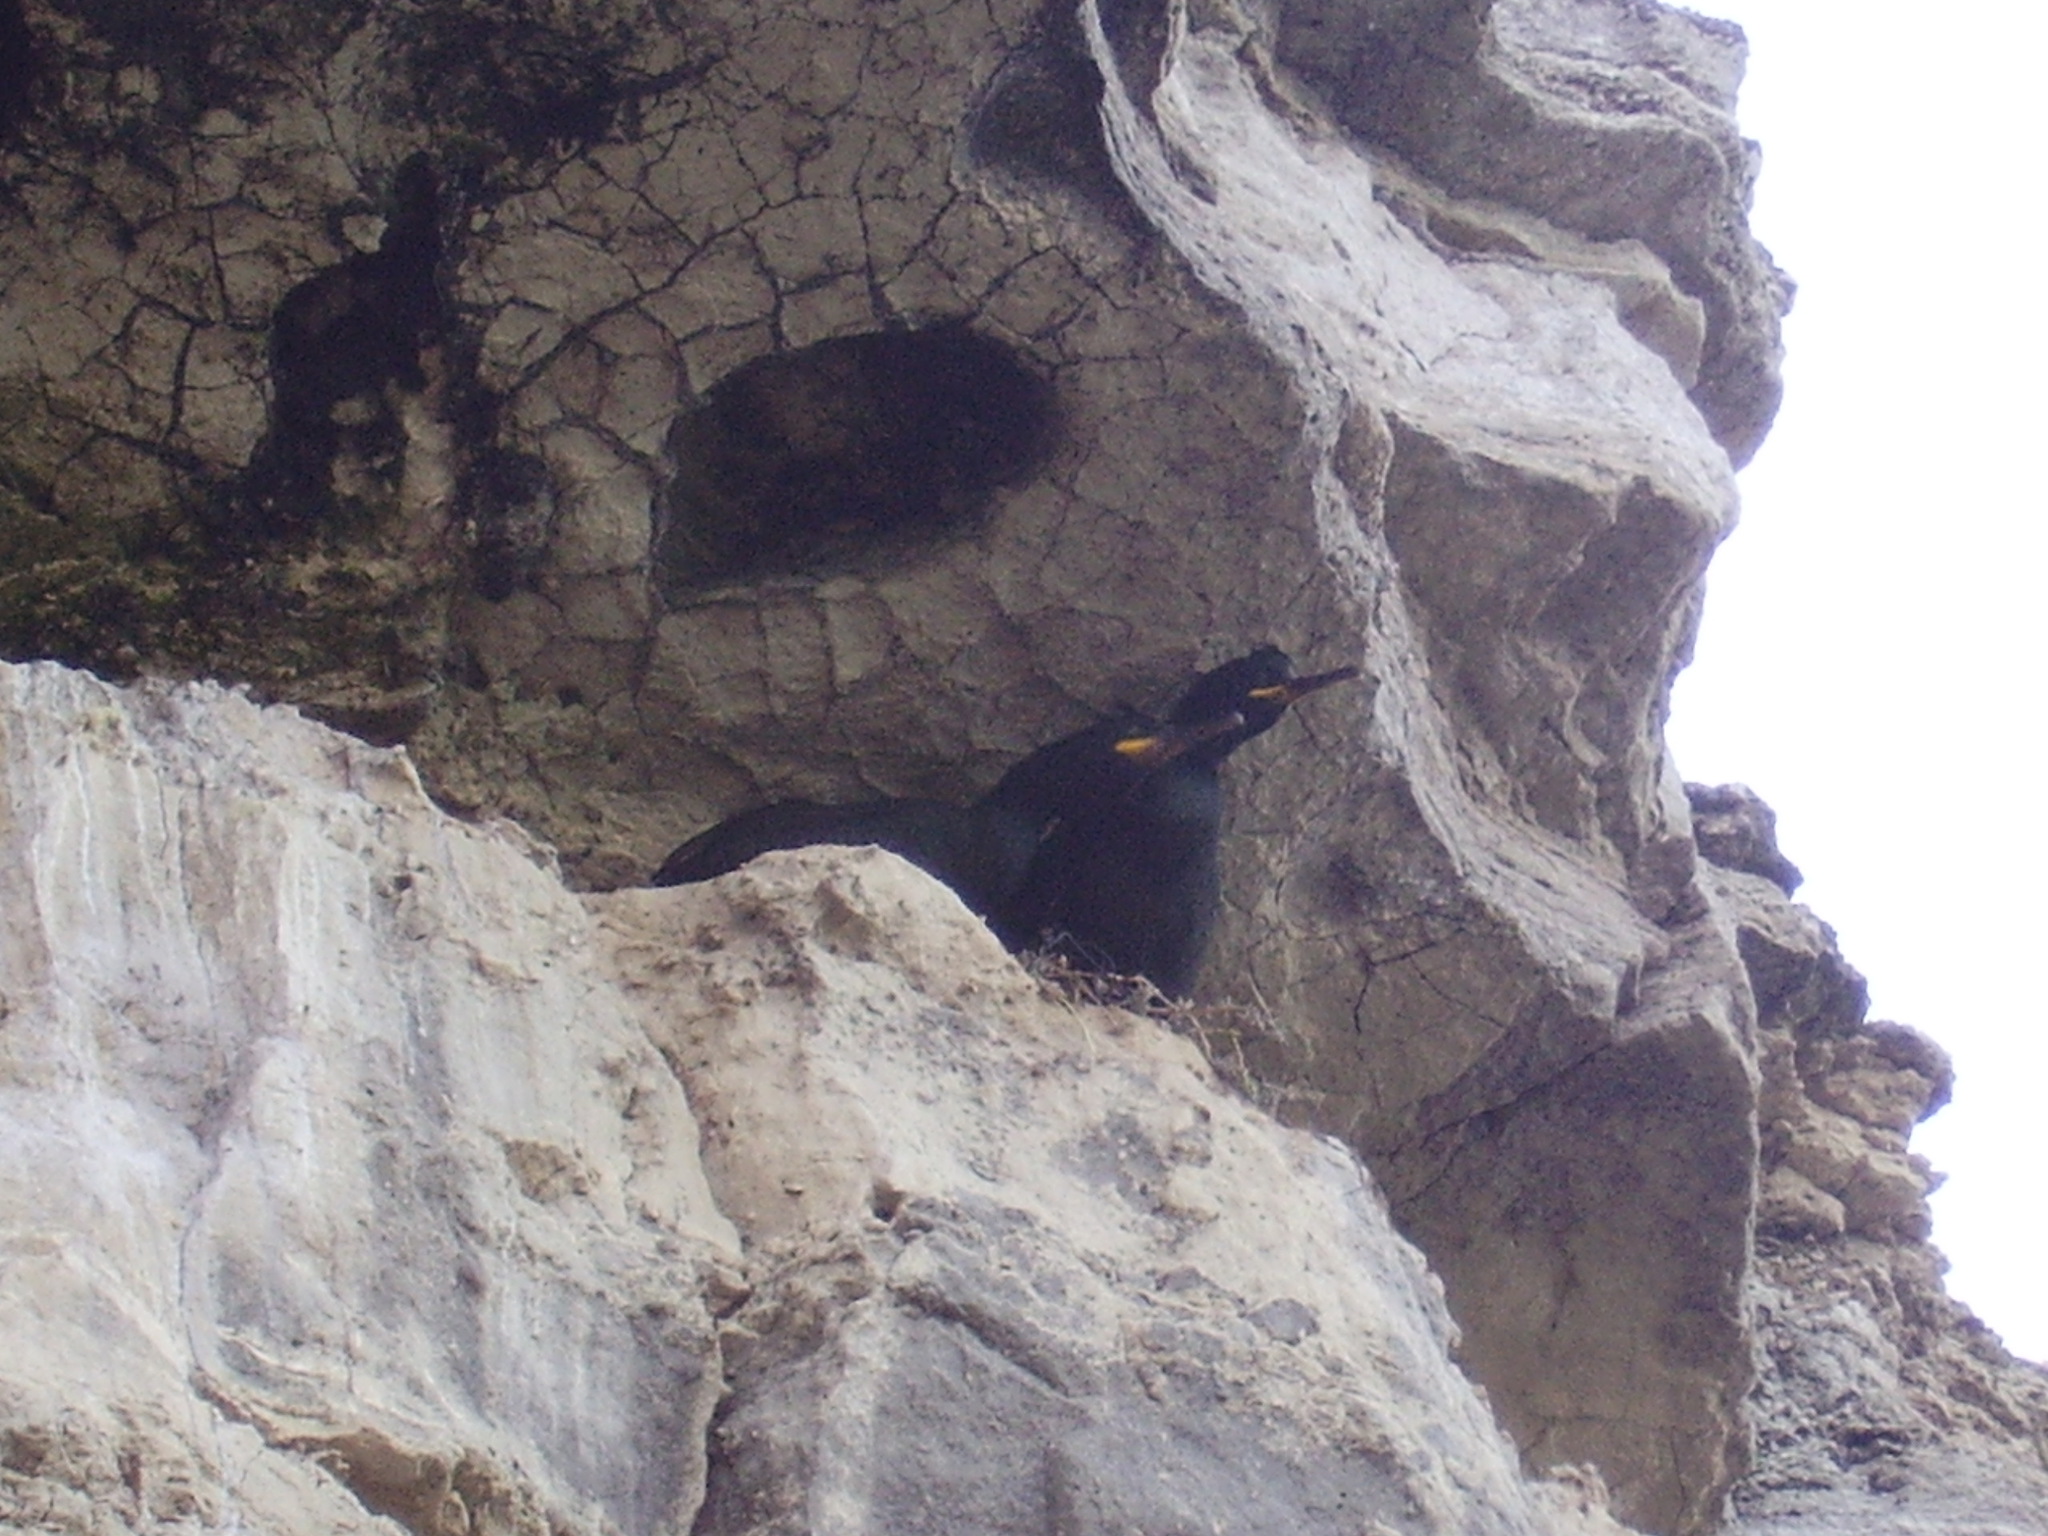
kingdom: Animalia
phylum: Chordata
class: Aves
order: Suliformes
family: Phalacrocoracidae
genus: Phalacrocorax
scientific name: Phalacrocorax aristotelis
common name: European shag
